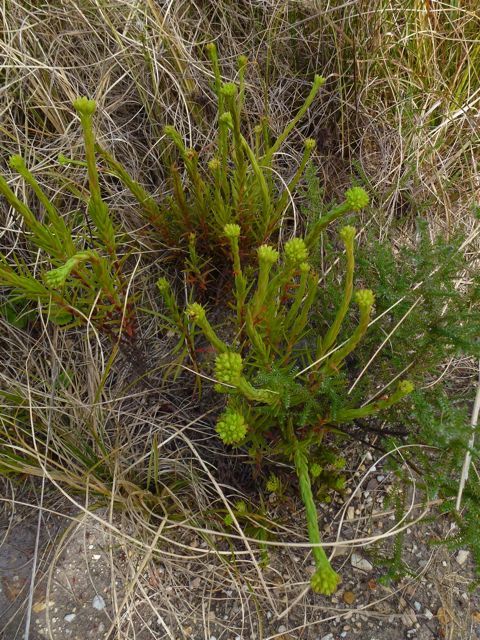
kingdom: Plantae
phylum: Tracheophyta
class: Magnoliopsida
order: Saxifragales
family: Crassulaceae
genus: Crassula
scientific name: Crassula subulata
